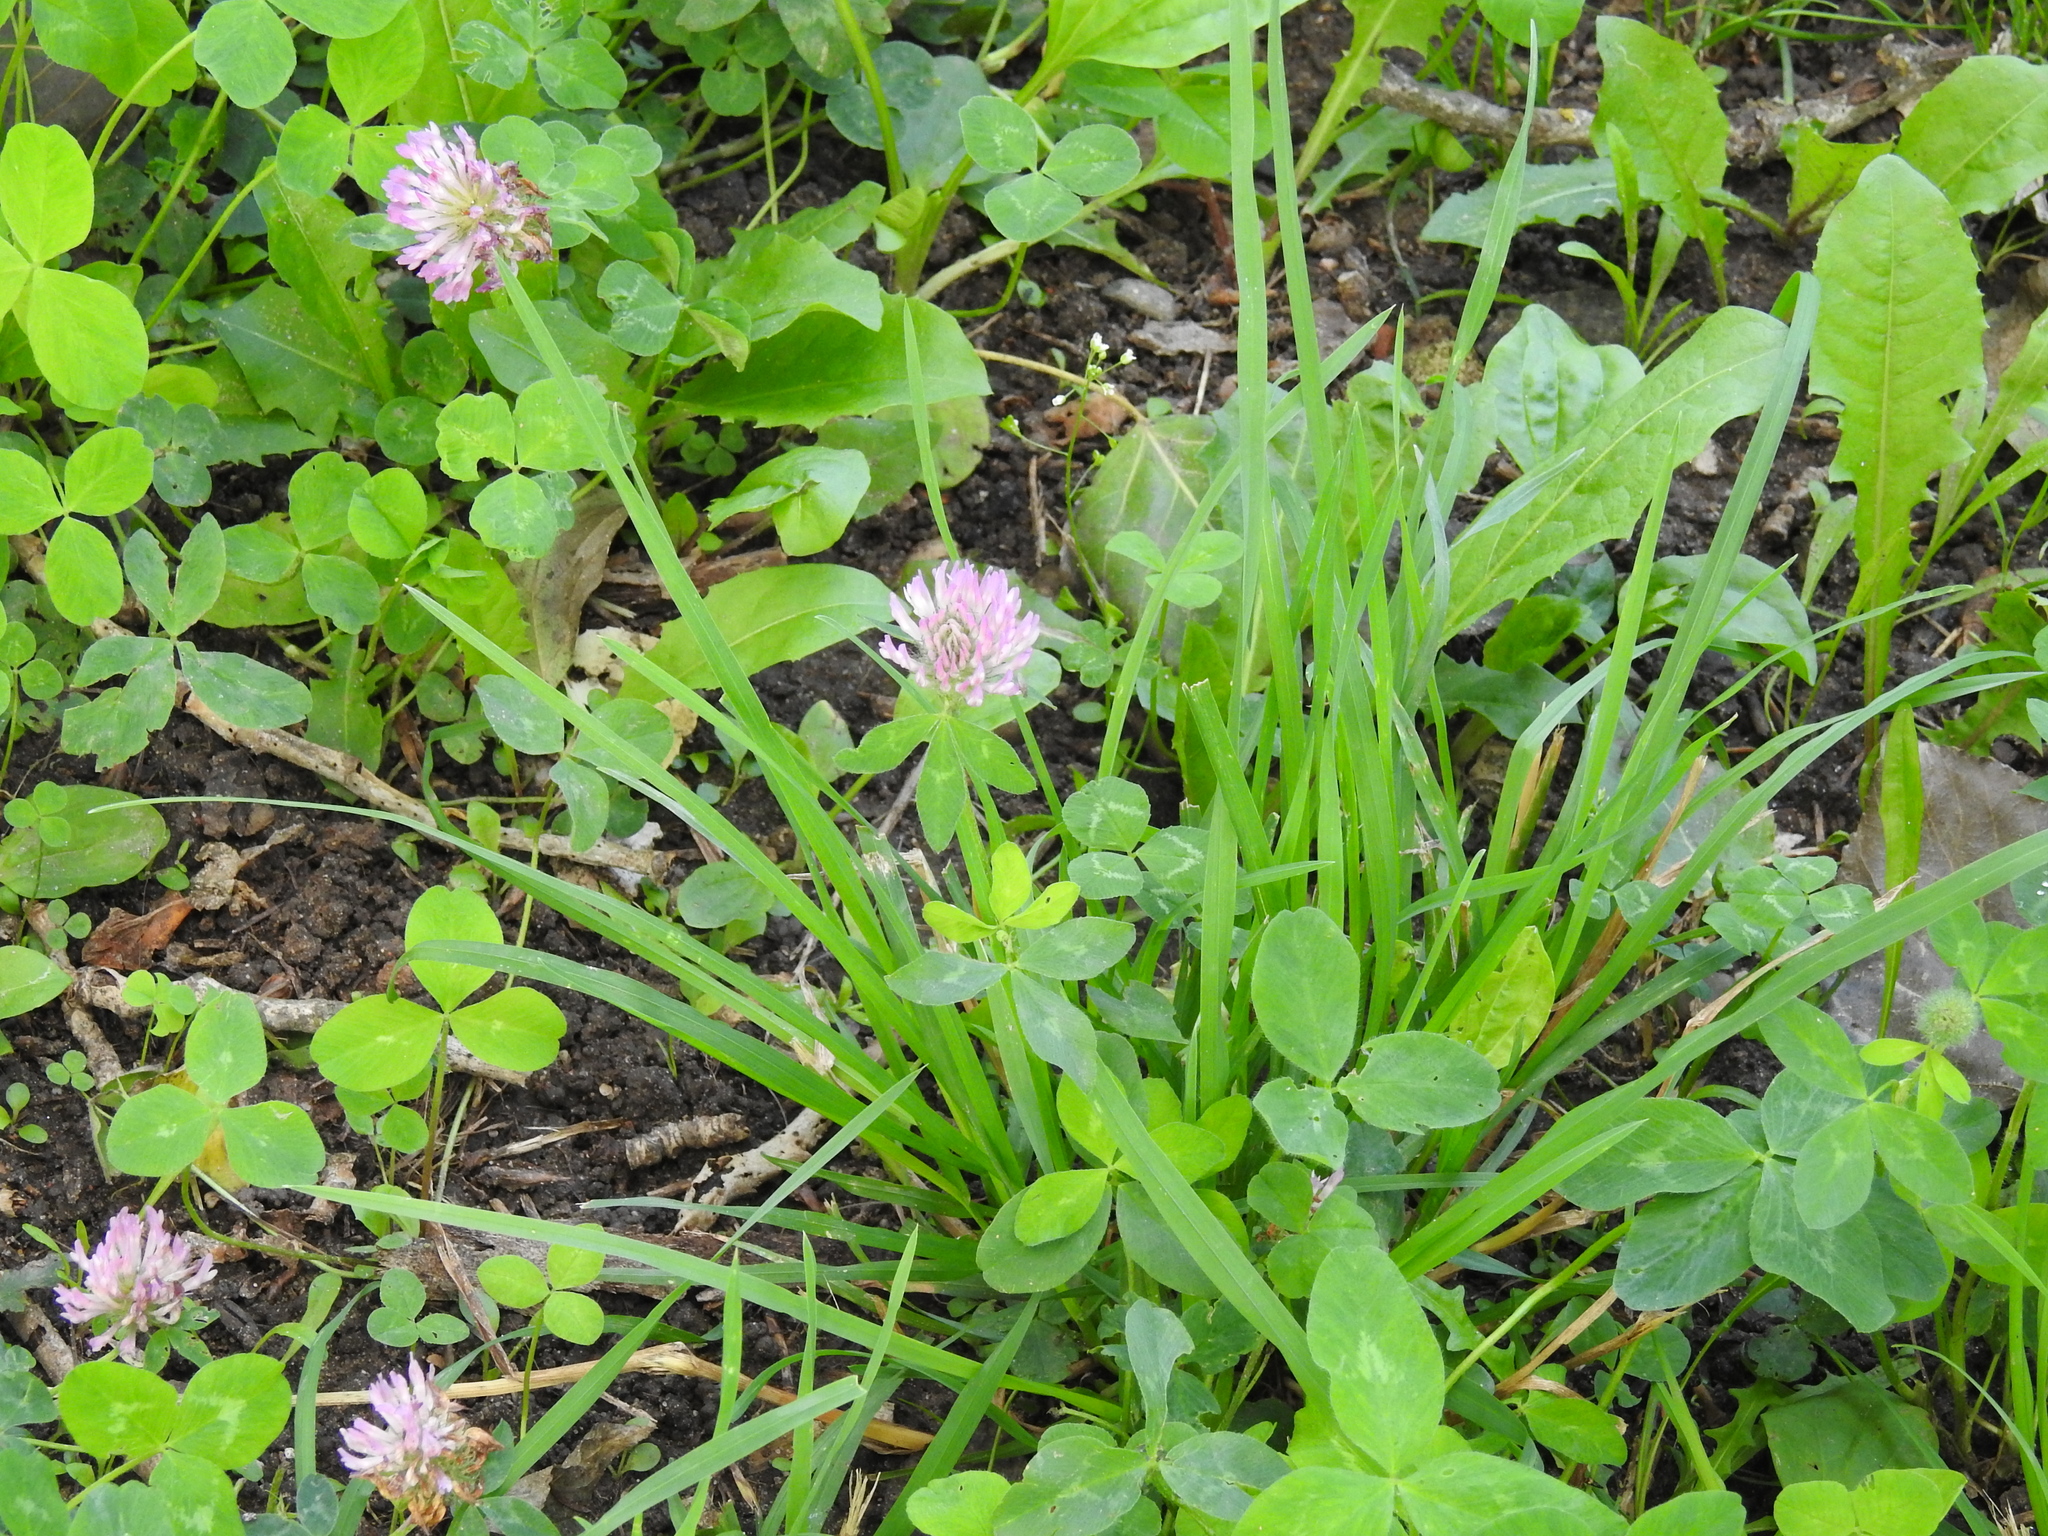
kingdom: Plantae
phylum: Tracheophyta
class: Magnoliopsida
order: Fabales
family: Fabaceae
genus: Trifolium
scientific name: Trifolium pratense
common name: Red clover
